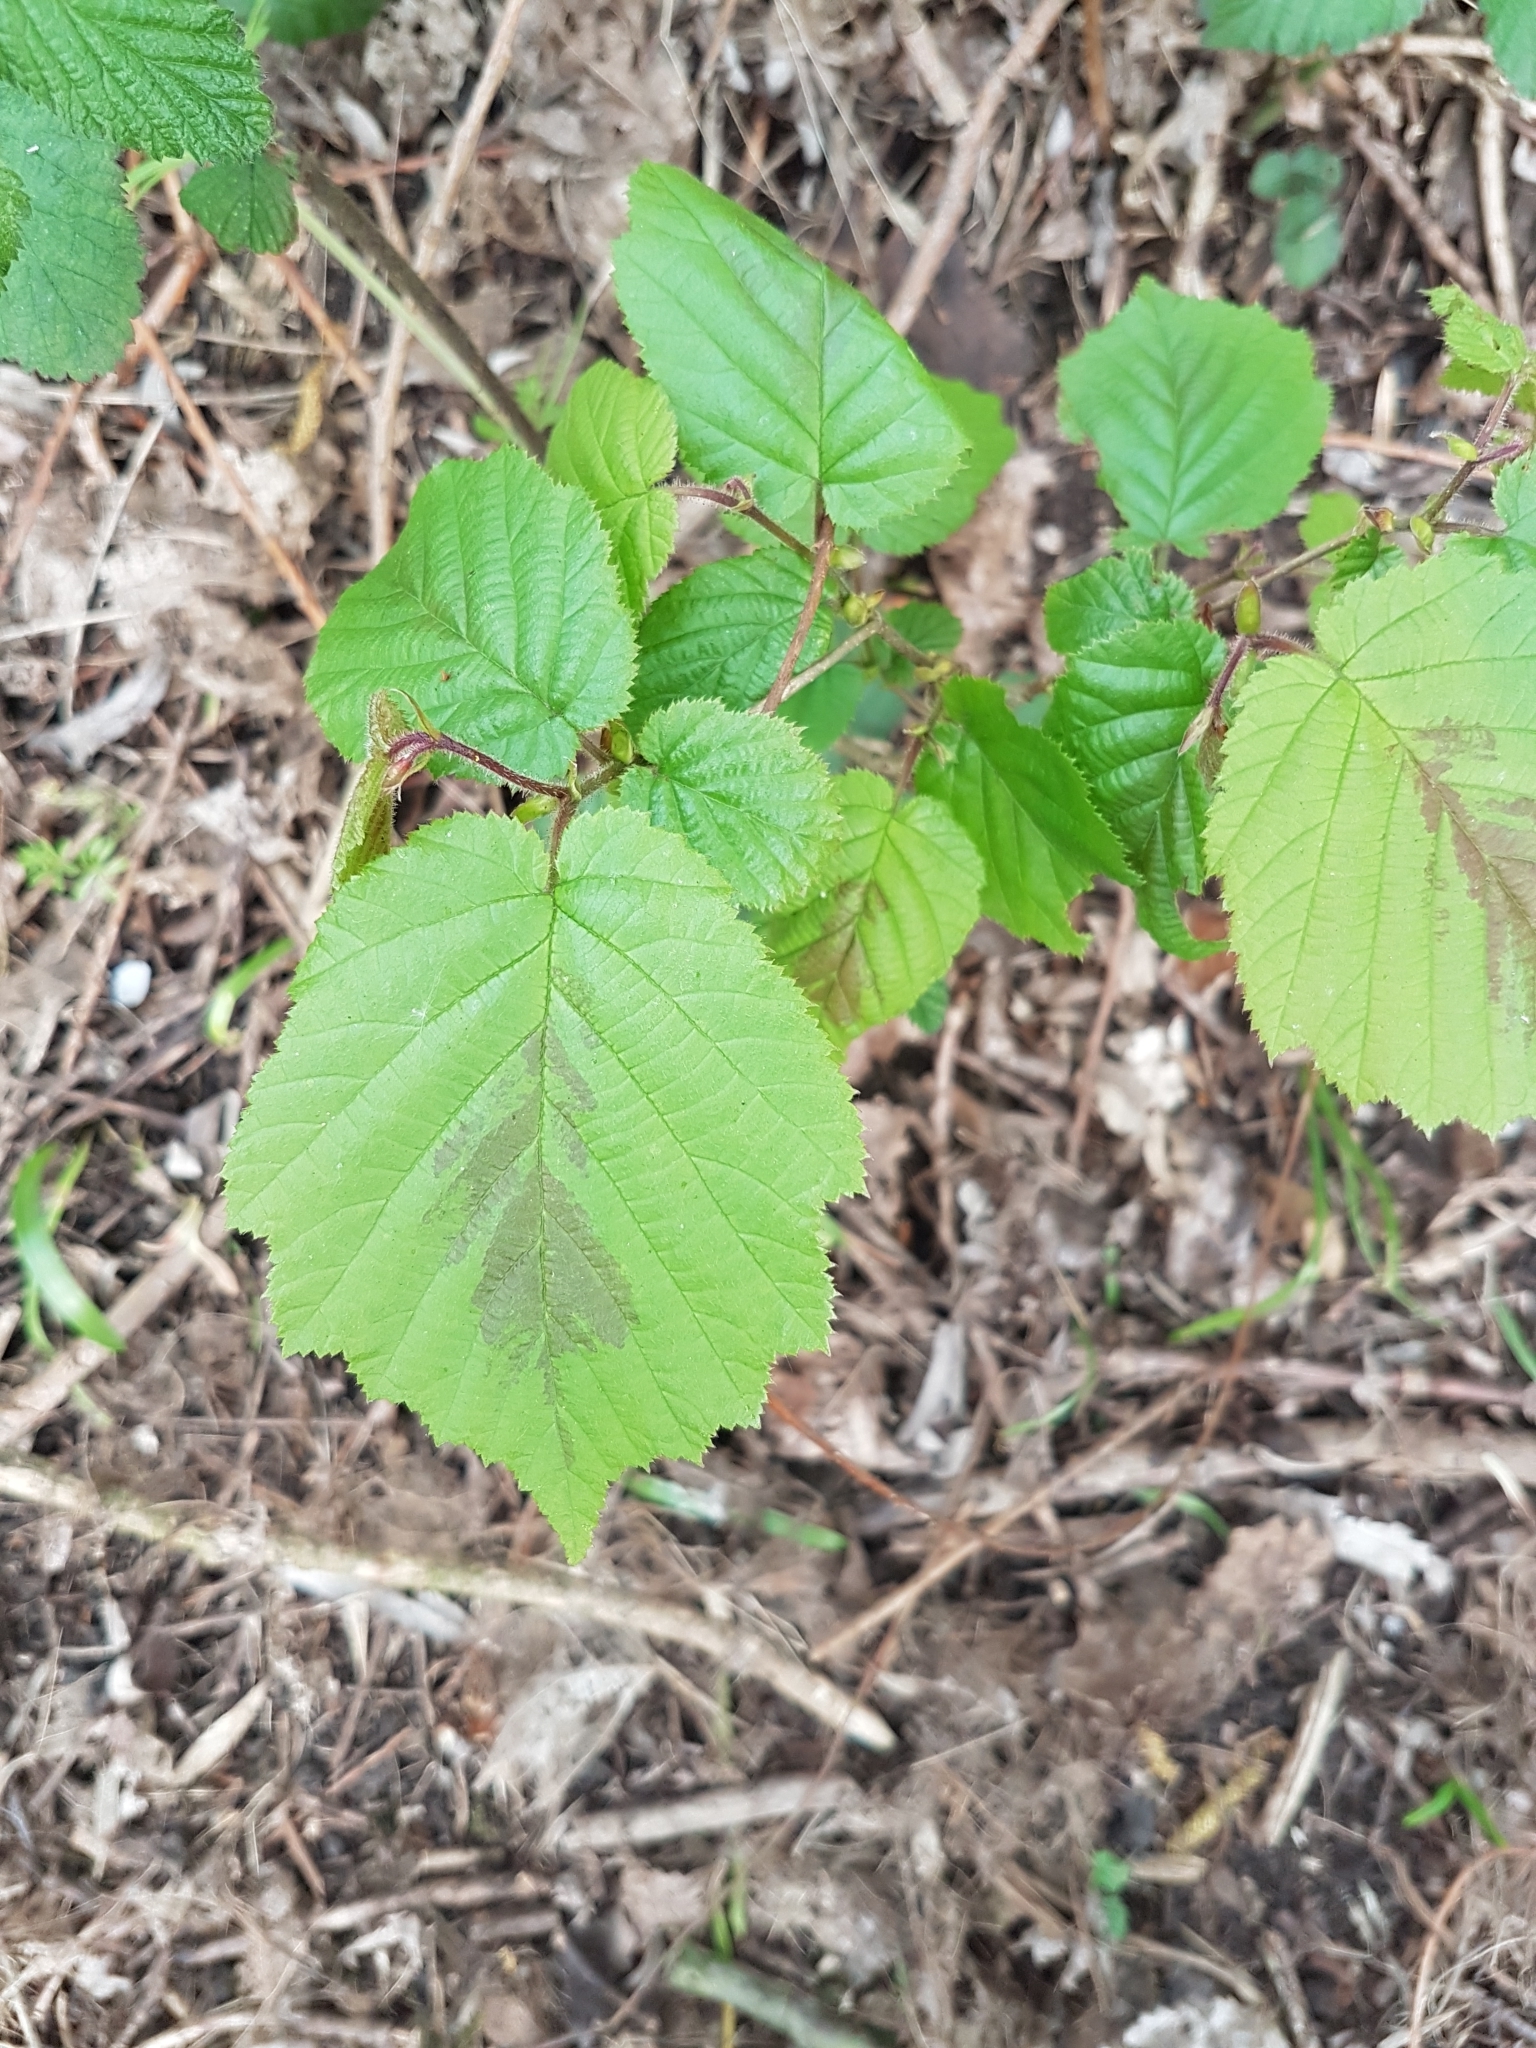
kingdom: Plantae
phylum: Tracheophyta
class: Magnoliopsida
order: Fagales
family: Betulaceae
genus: Corylus
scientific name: Corylus avellana
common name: European hazel
